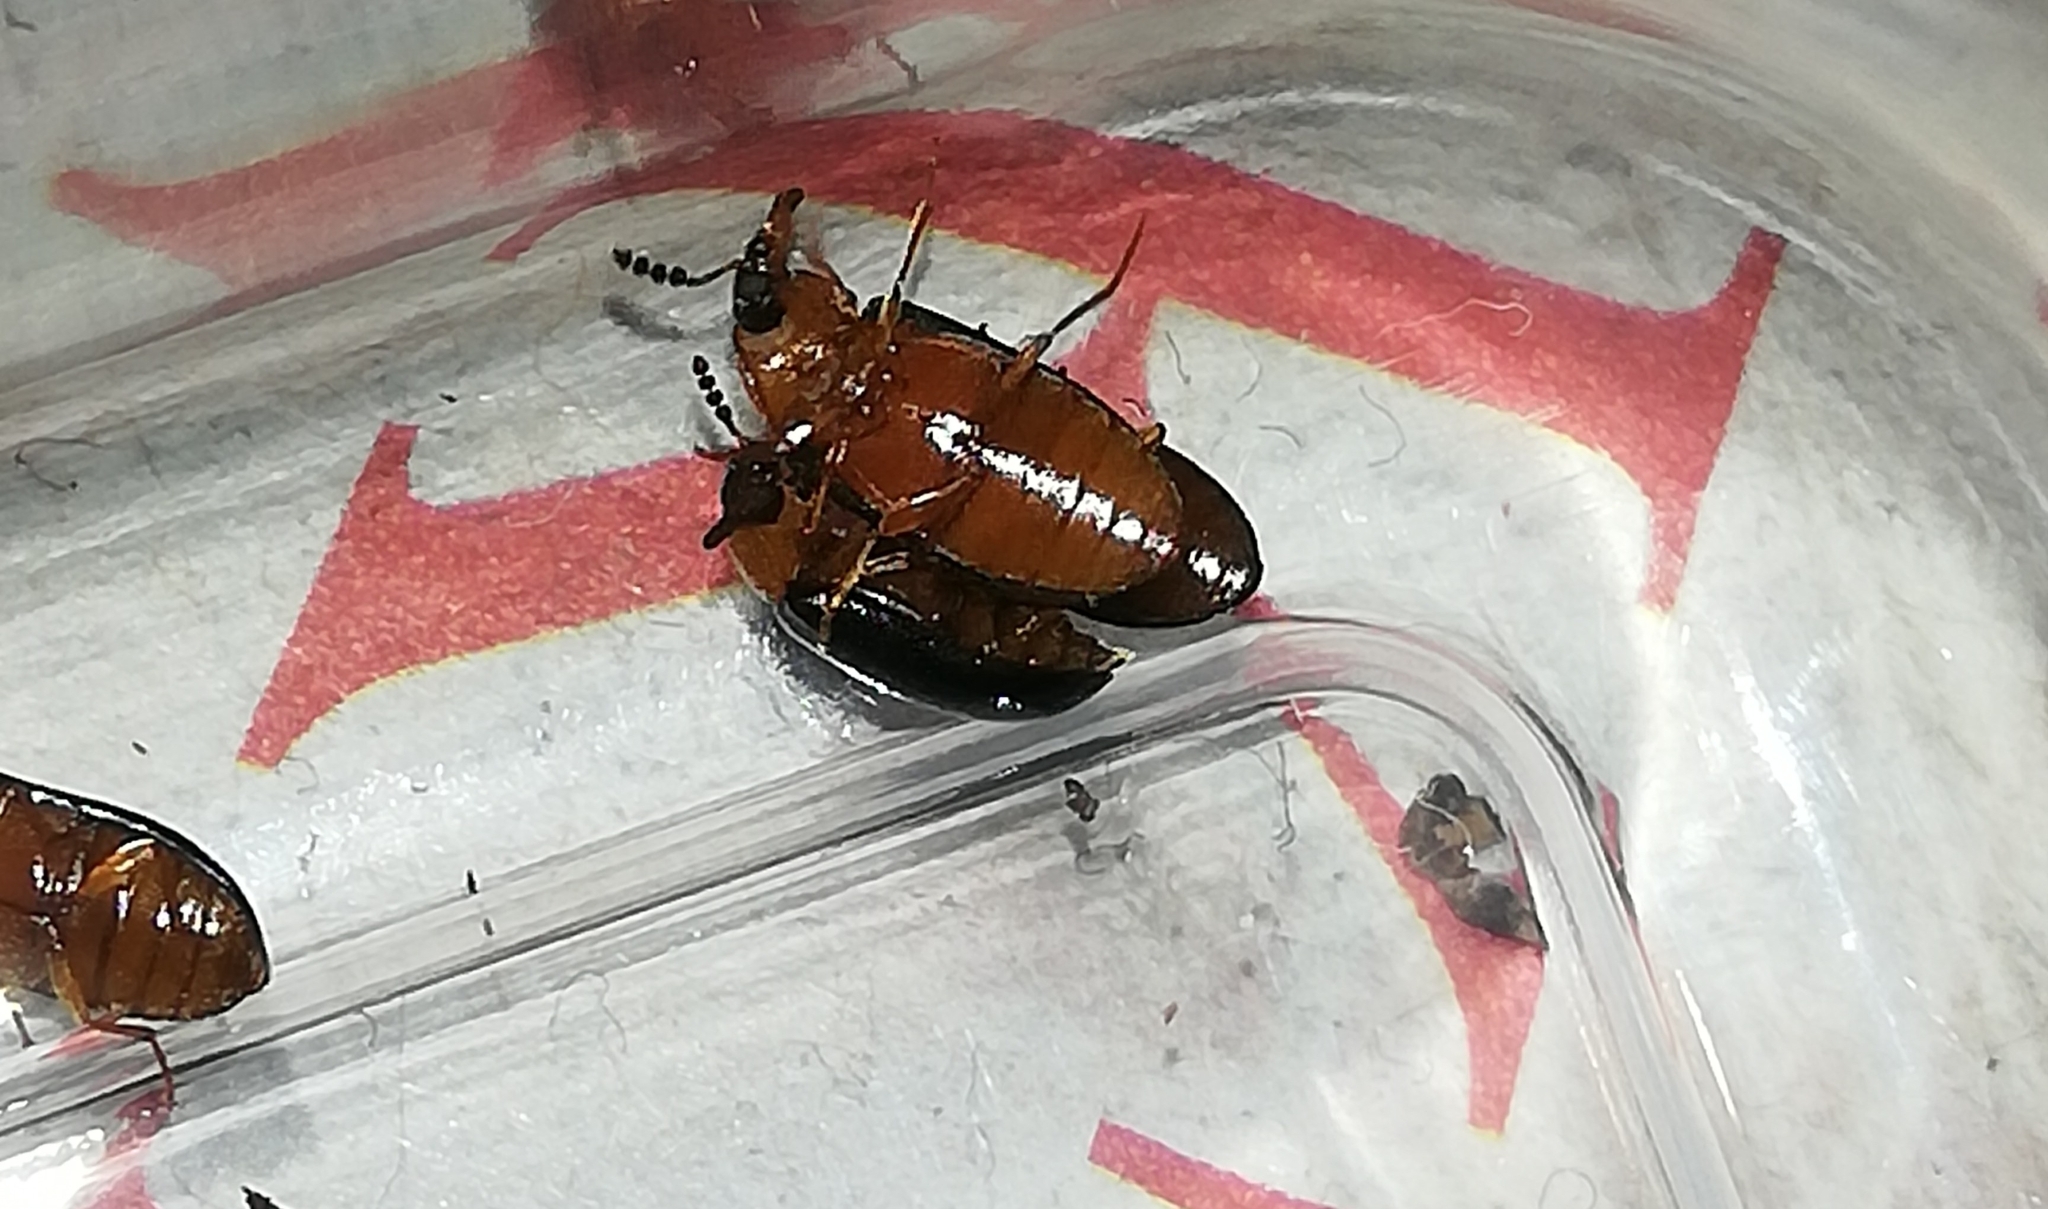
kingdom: Animalia
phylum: Arthropoda
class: Insecta
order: Coleoptera
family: Tetratomidae
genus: Tetratoma
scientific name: Tetratoma fungorum
